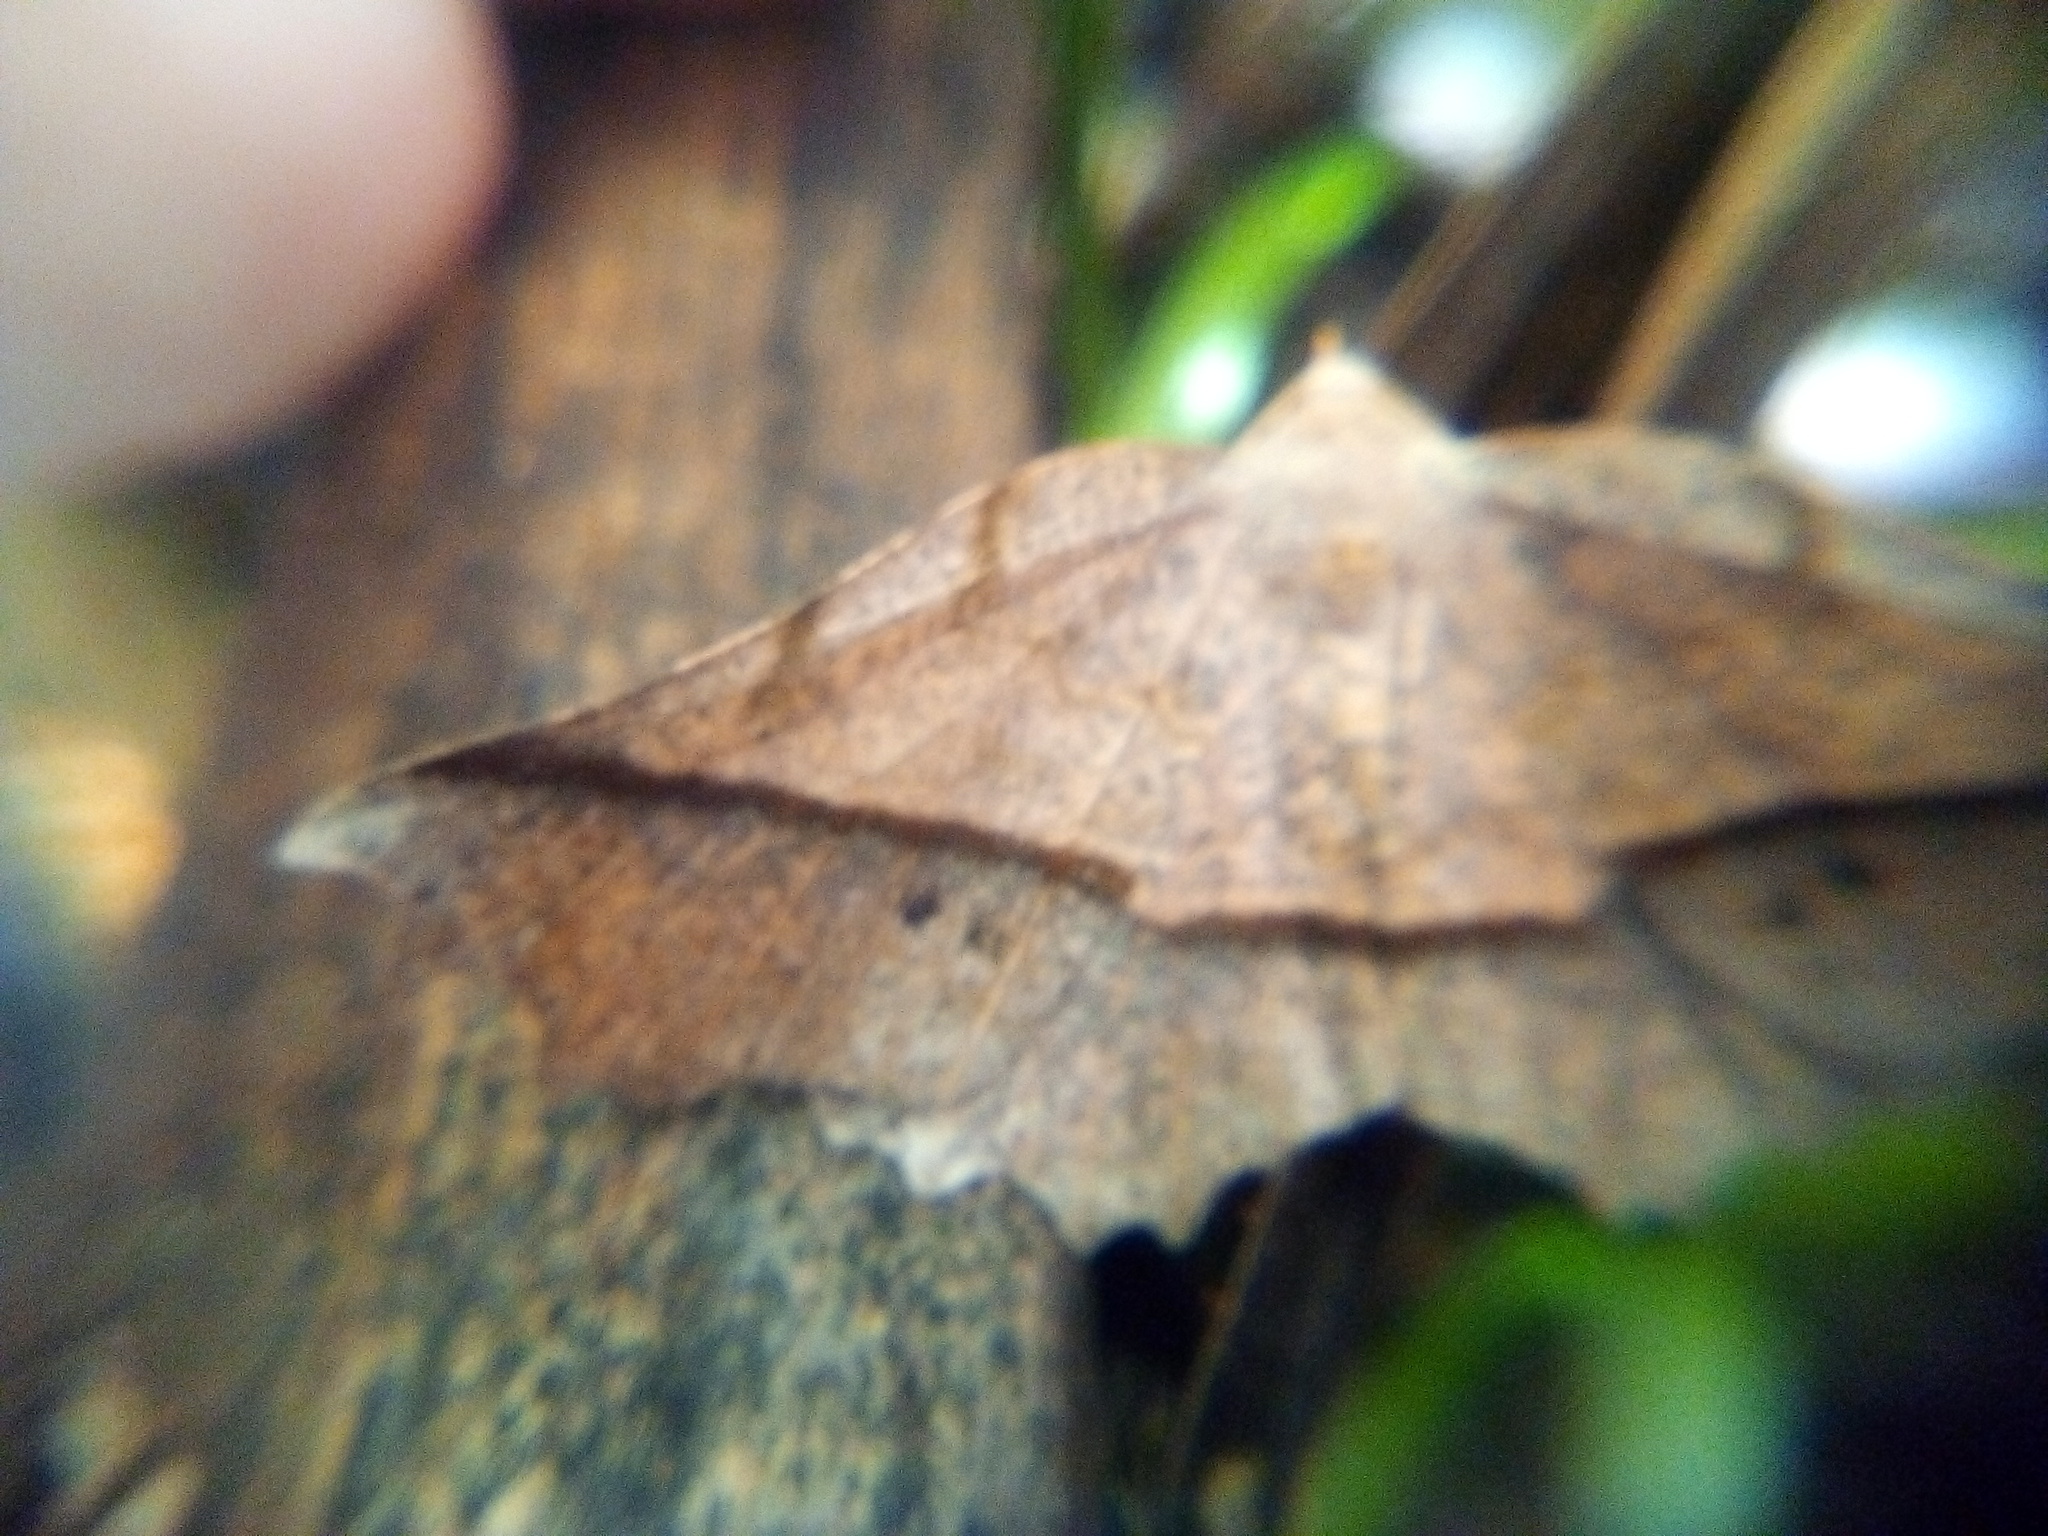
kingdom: Animalia
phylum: Arthropoda
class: Insecta
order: Lepidoptera
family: Geometridae
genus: Ischalis
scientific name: Ischalis gallaria
